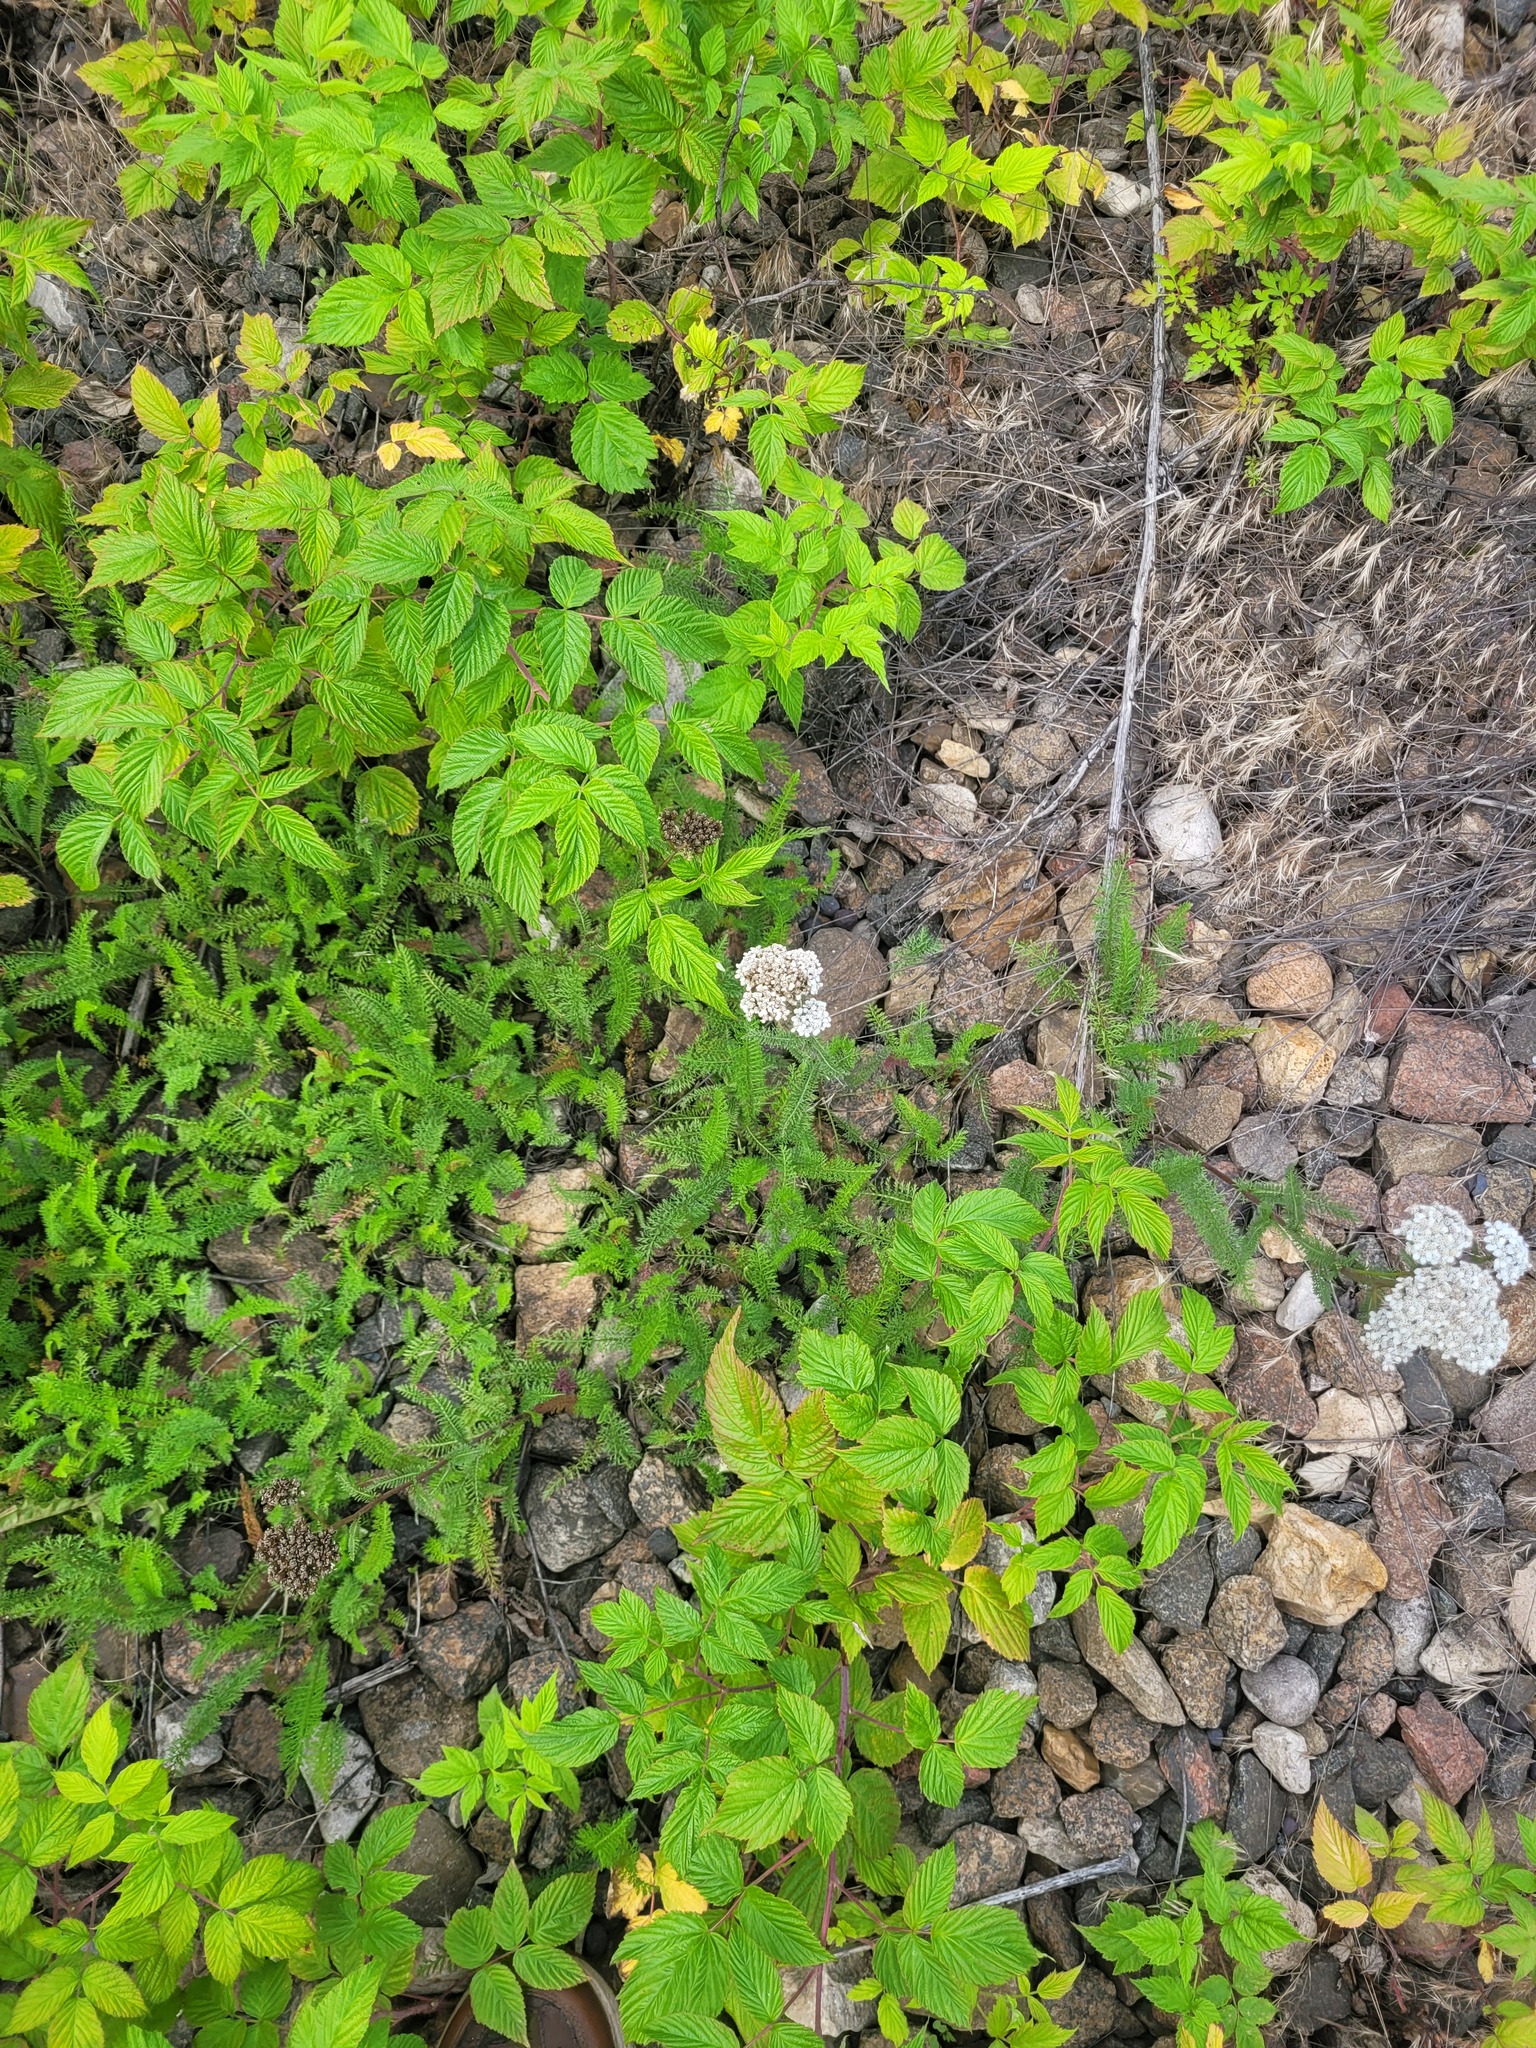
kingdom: Plantae
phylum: Tracheophyta
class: Magnoliopsida
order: Asterales
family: Asteraceae
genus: Achillea
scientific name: Achillea millefolium
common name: Yarrow
